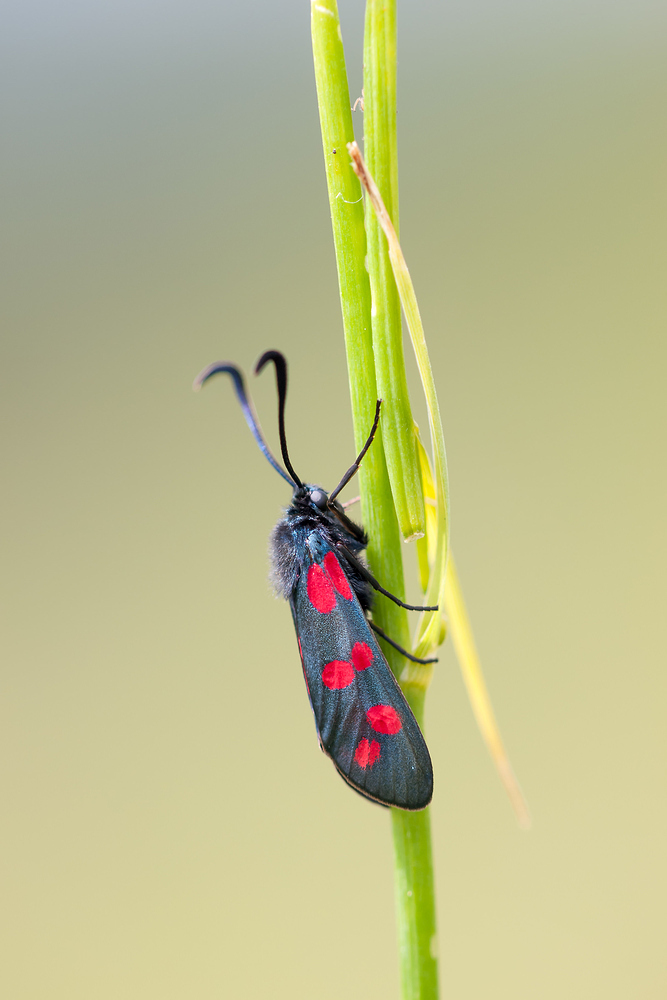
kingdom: Animalia
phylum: Arthropoda
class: Insecta
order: Lepidoptera
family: Zygaenidae
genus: Zygaena
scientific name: Zygaena filipendulae
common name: Six-spot burnet
